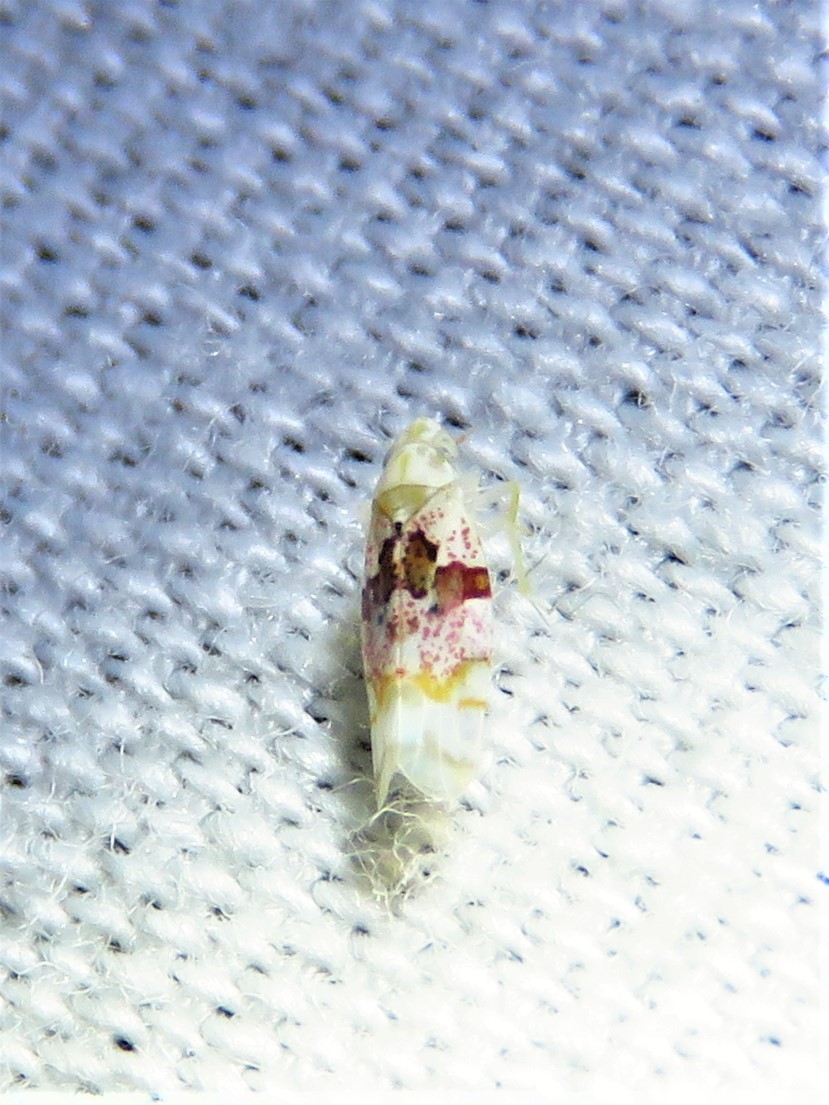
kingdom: Animalia
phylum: Arthropoda
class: Insecta
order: Hemiptera
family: Cicadellidae
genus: Hymetta
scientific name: Hymetta anthisma
